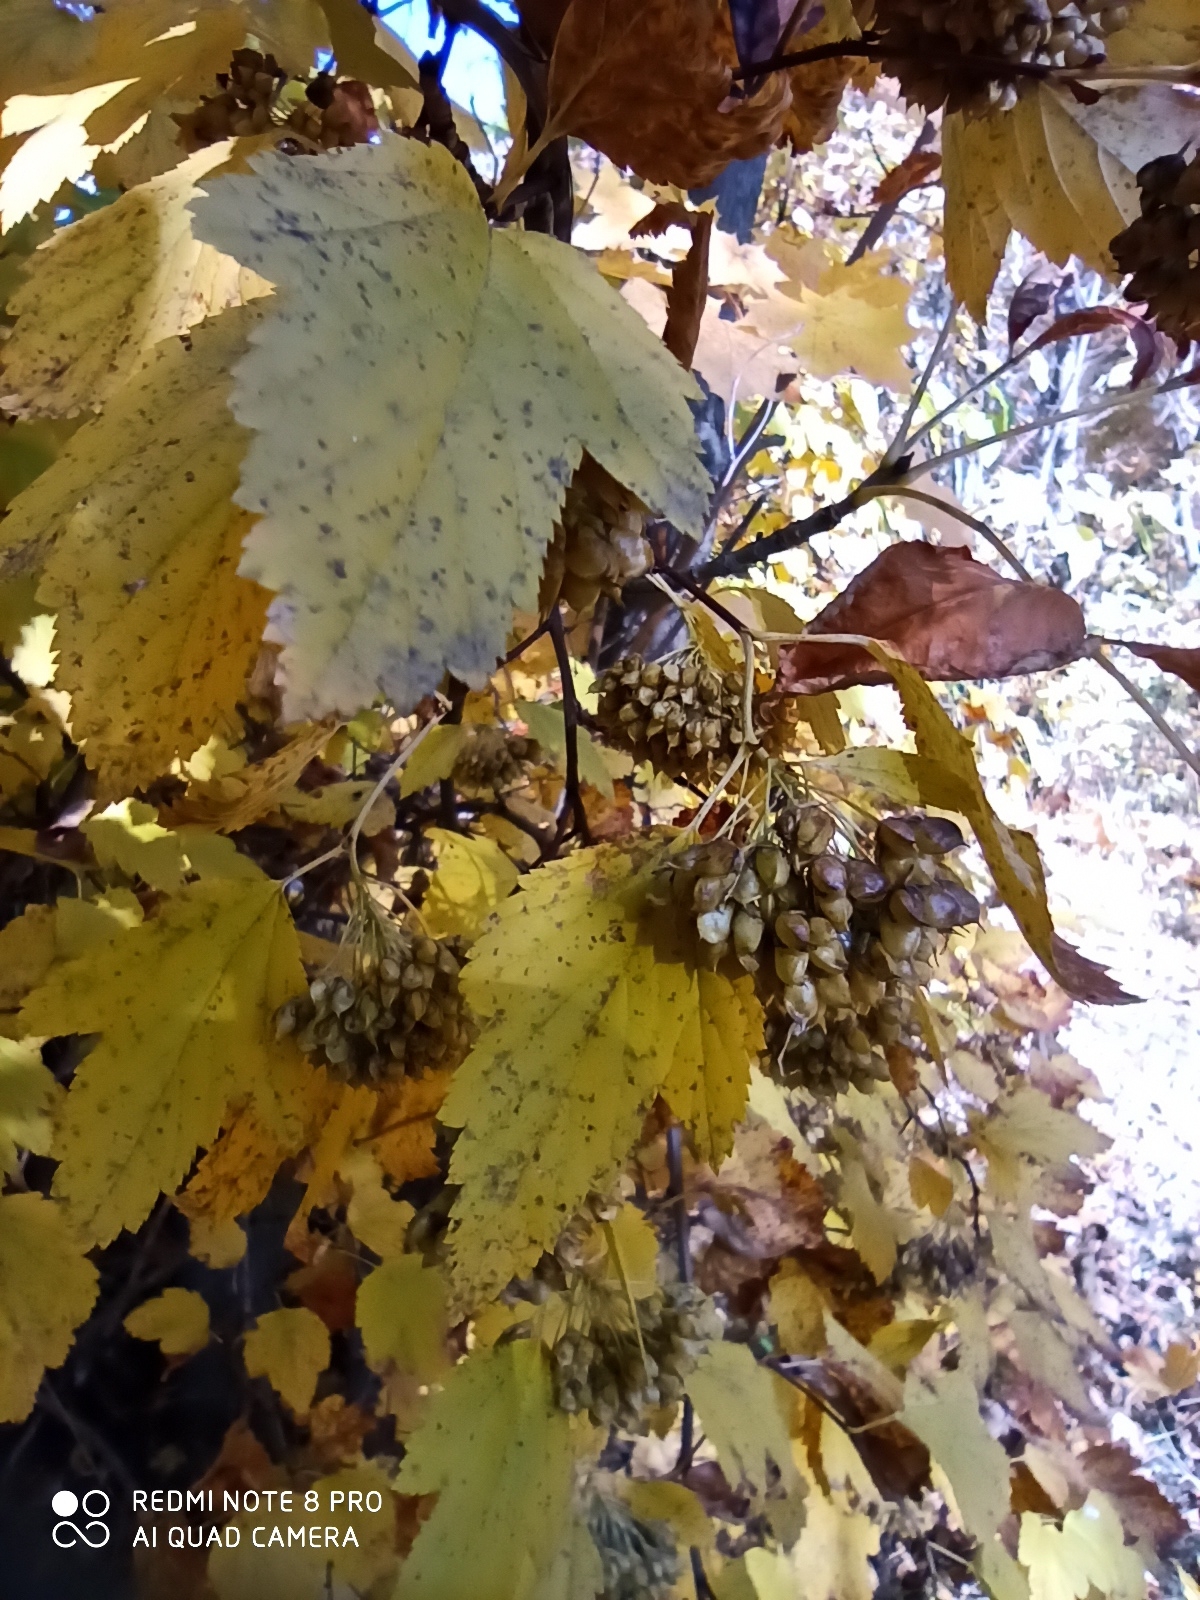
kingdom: Plantae
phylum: Tracheophyta
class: Magnoliopsida
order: Rosales
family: Rosaceae
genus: Physocarpus
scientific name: Physocarpus opulifolius
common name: Ninebark
